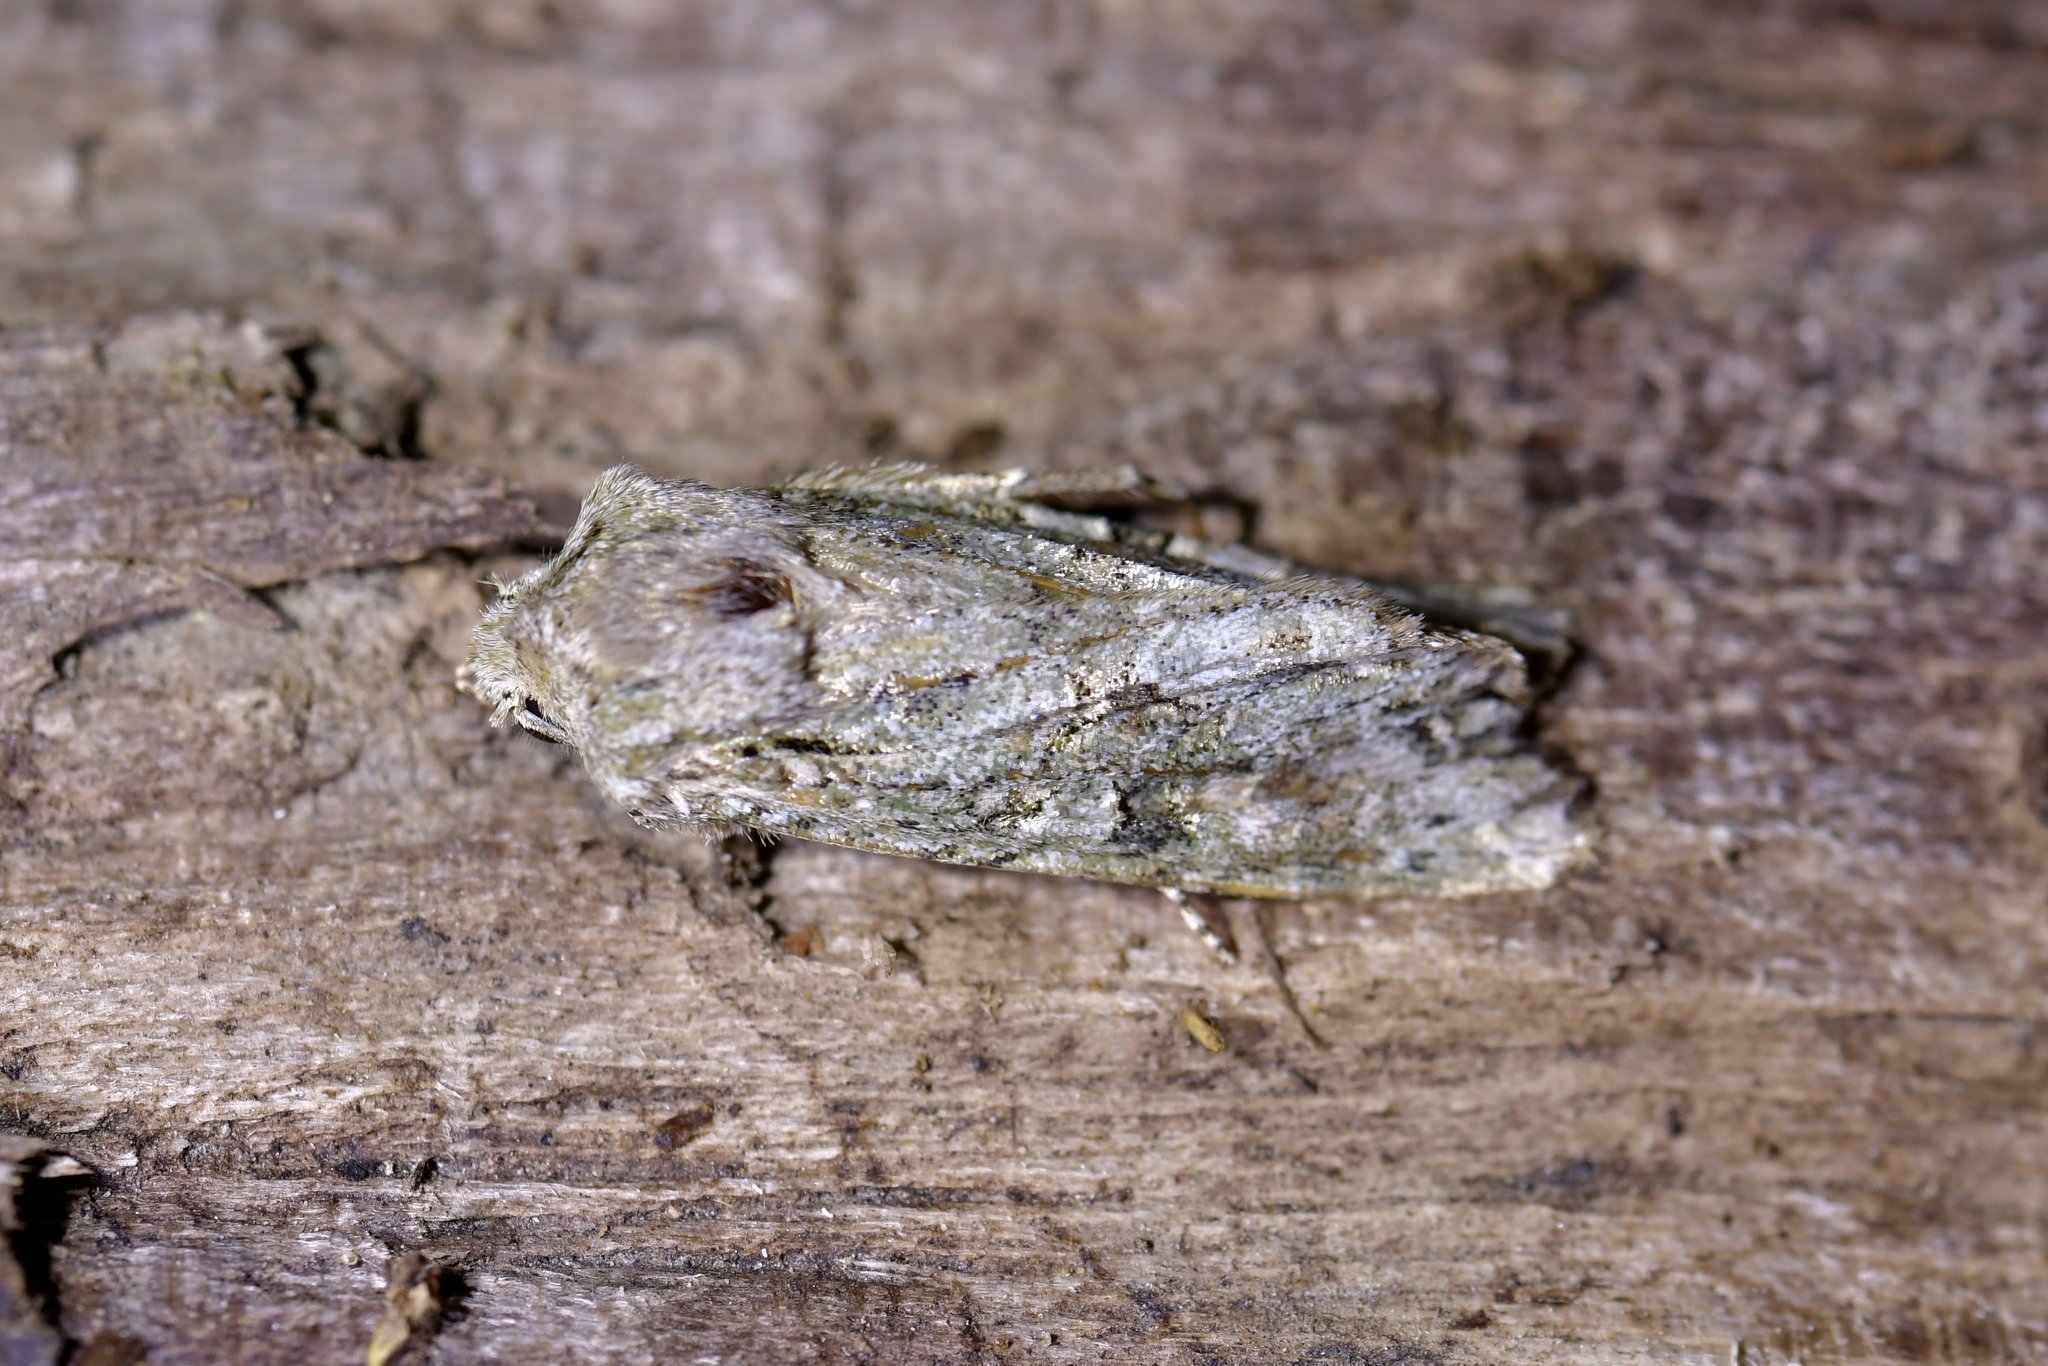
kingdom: Animalia
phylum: Arthropoda
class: Insecta
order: Lepidoptera
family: Noctuidae
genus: Ichneutica
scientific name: Ichneutica mutans
